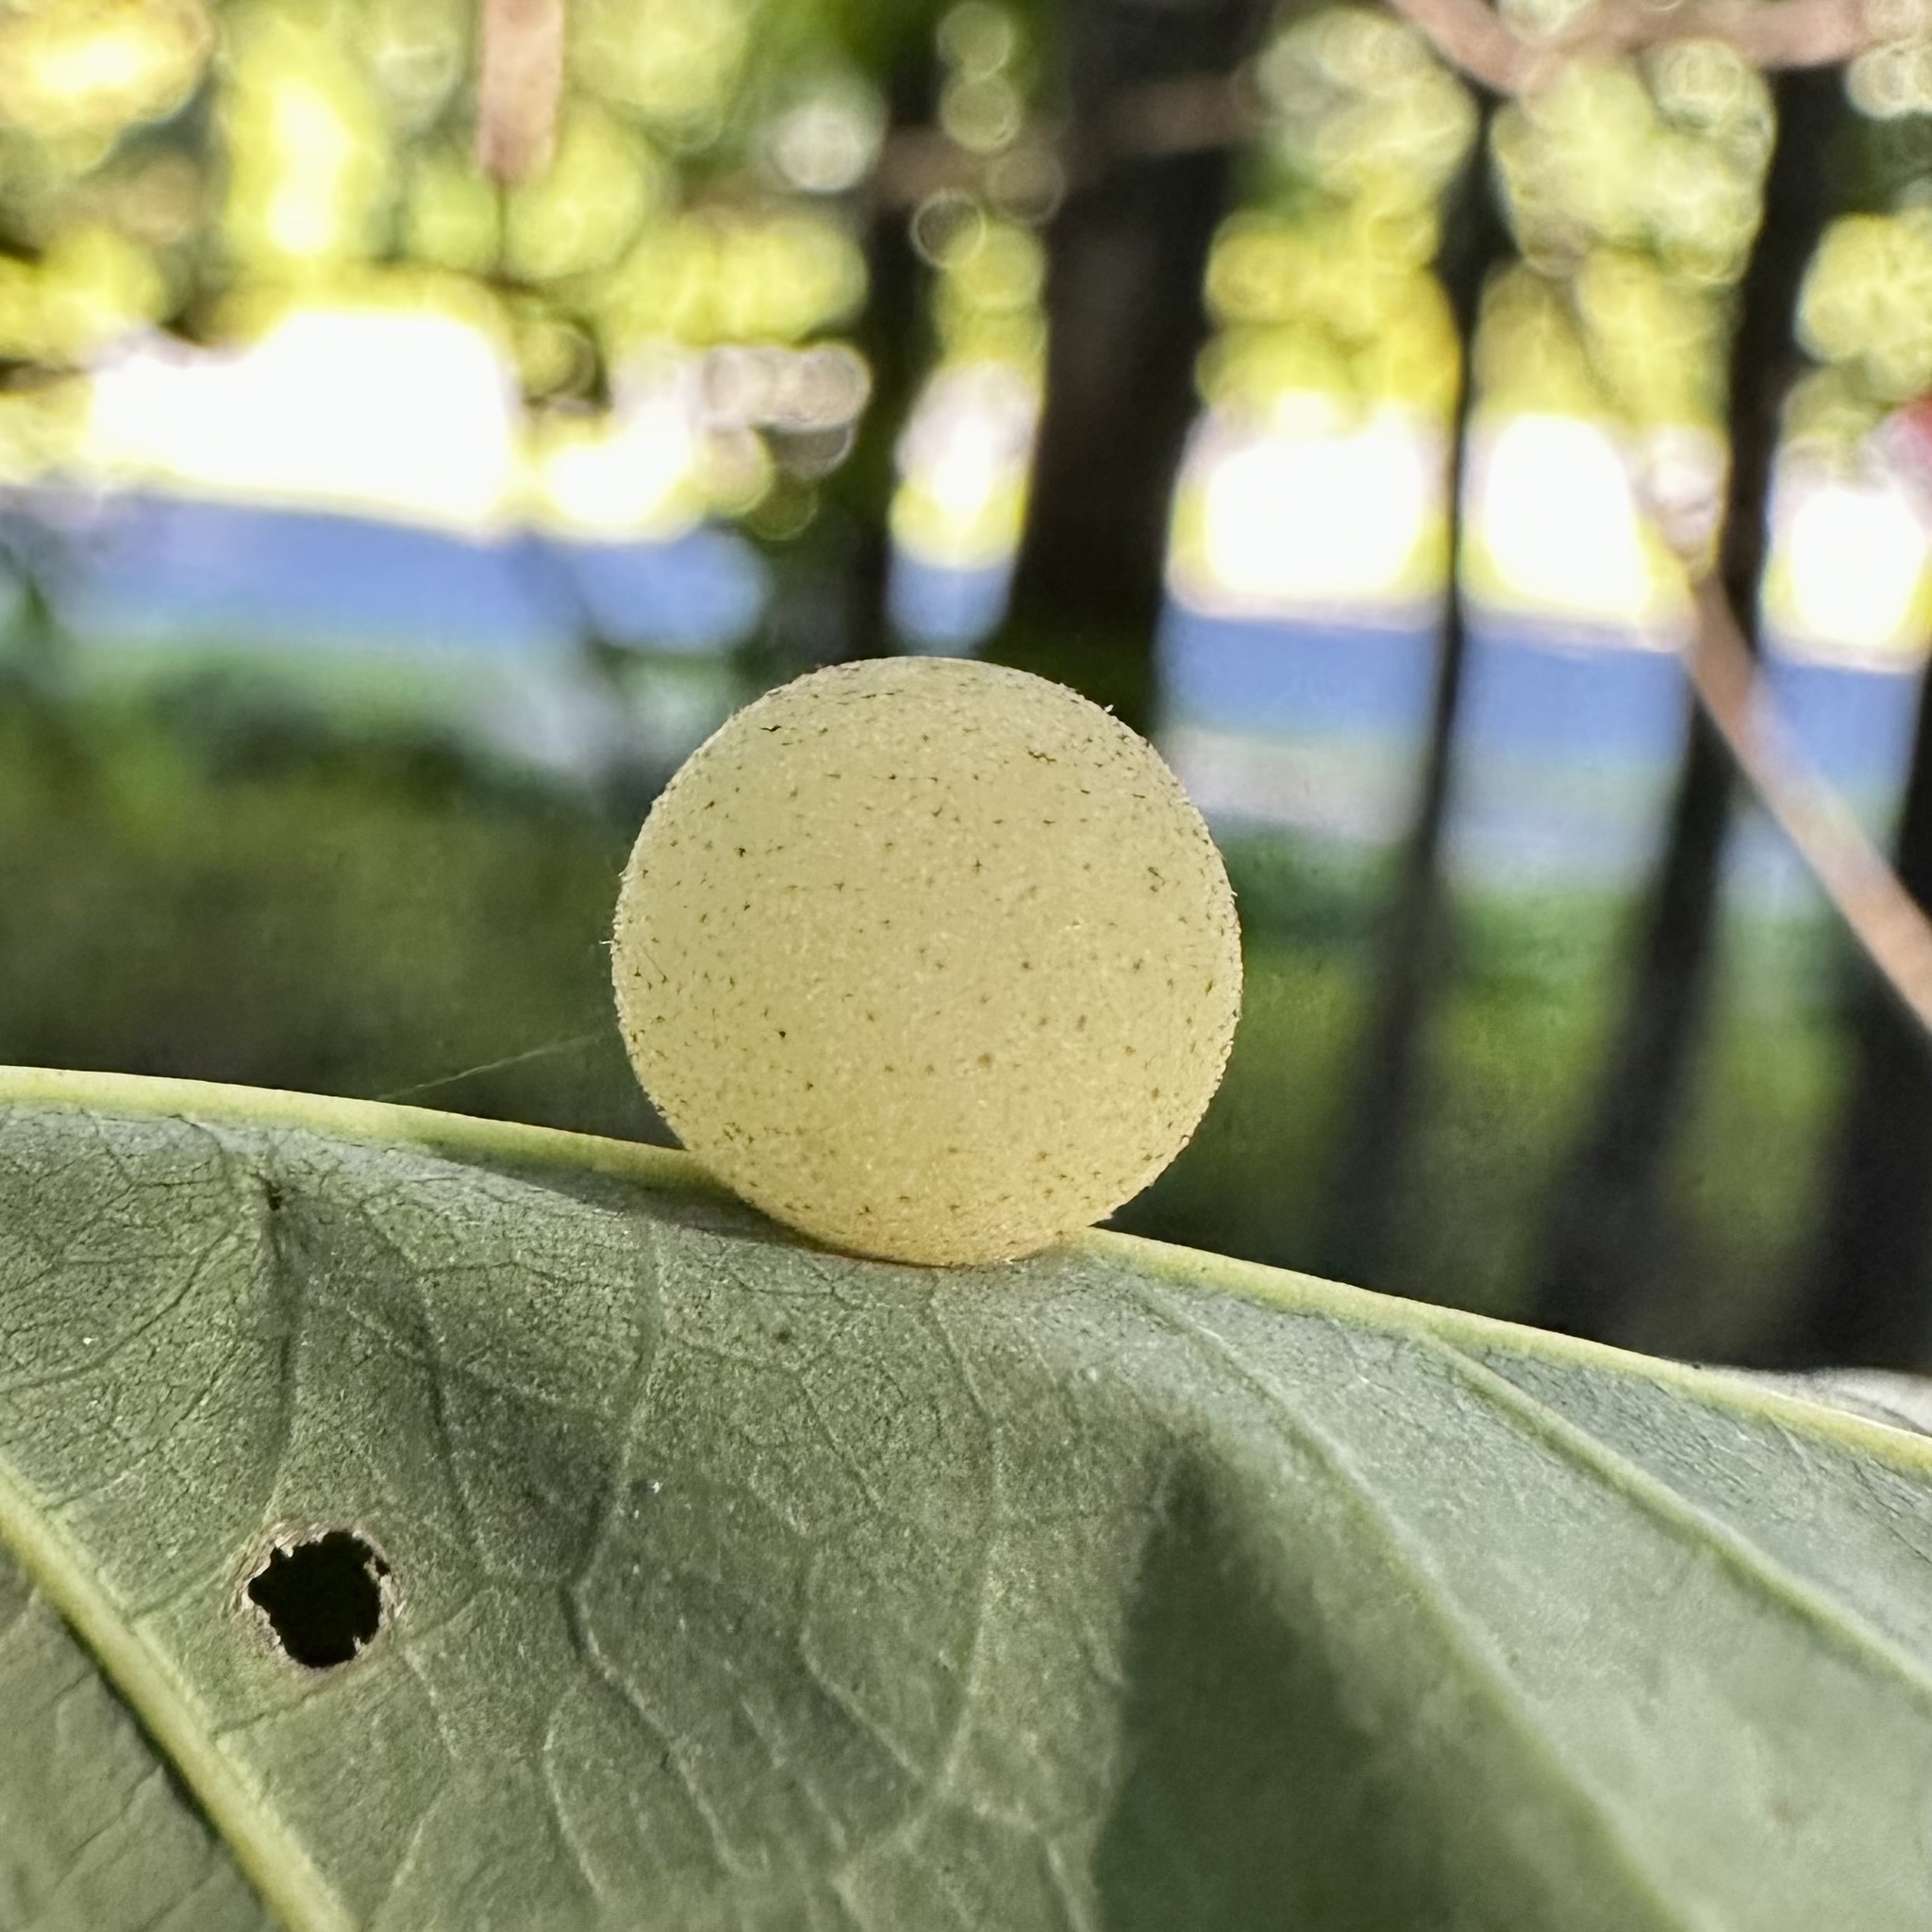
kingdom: Animalia
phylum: Arthropoda
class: Insecta
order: Hymenoptera
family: Cynipidae
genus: Philonix
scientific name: Philonix fulvicollis
